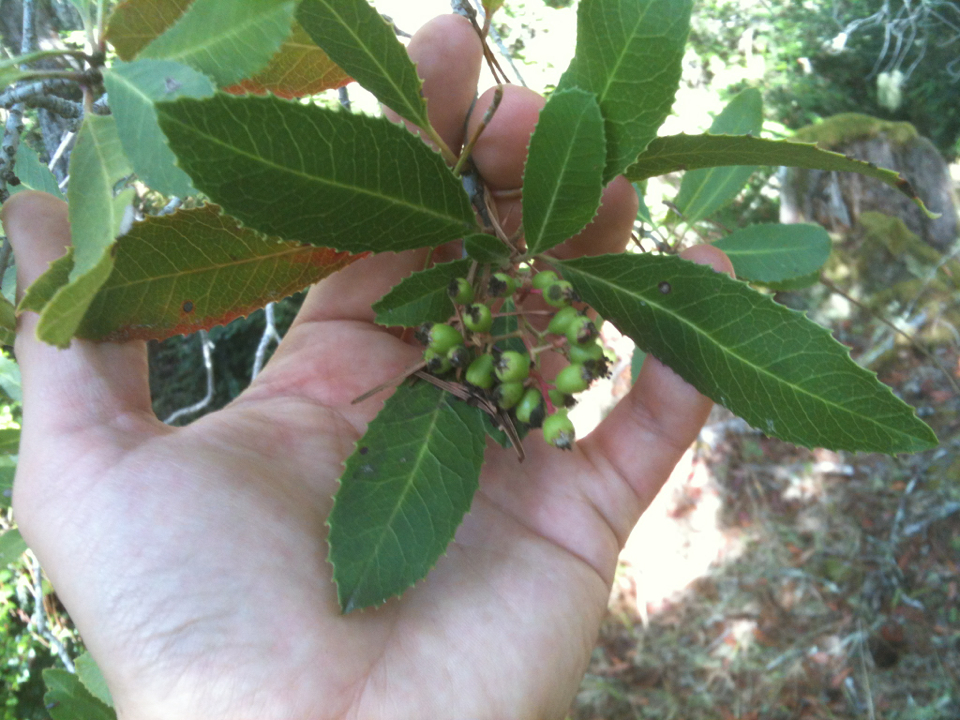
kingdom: Plantae
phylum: Tracheophyta
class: Magnoliopsida
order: Rosales
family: Rosaceae
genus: Heteromeles
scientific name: Heteromeles arbutifolia
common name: California-holly
